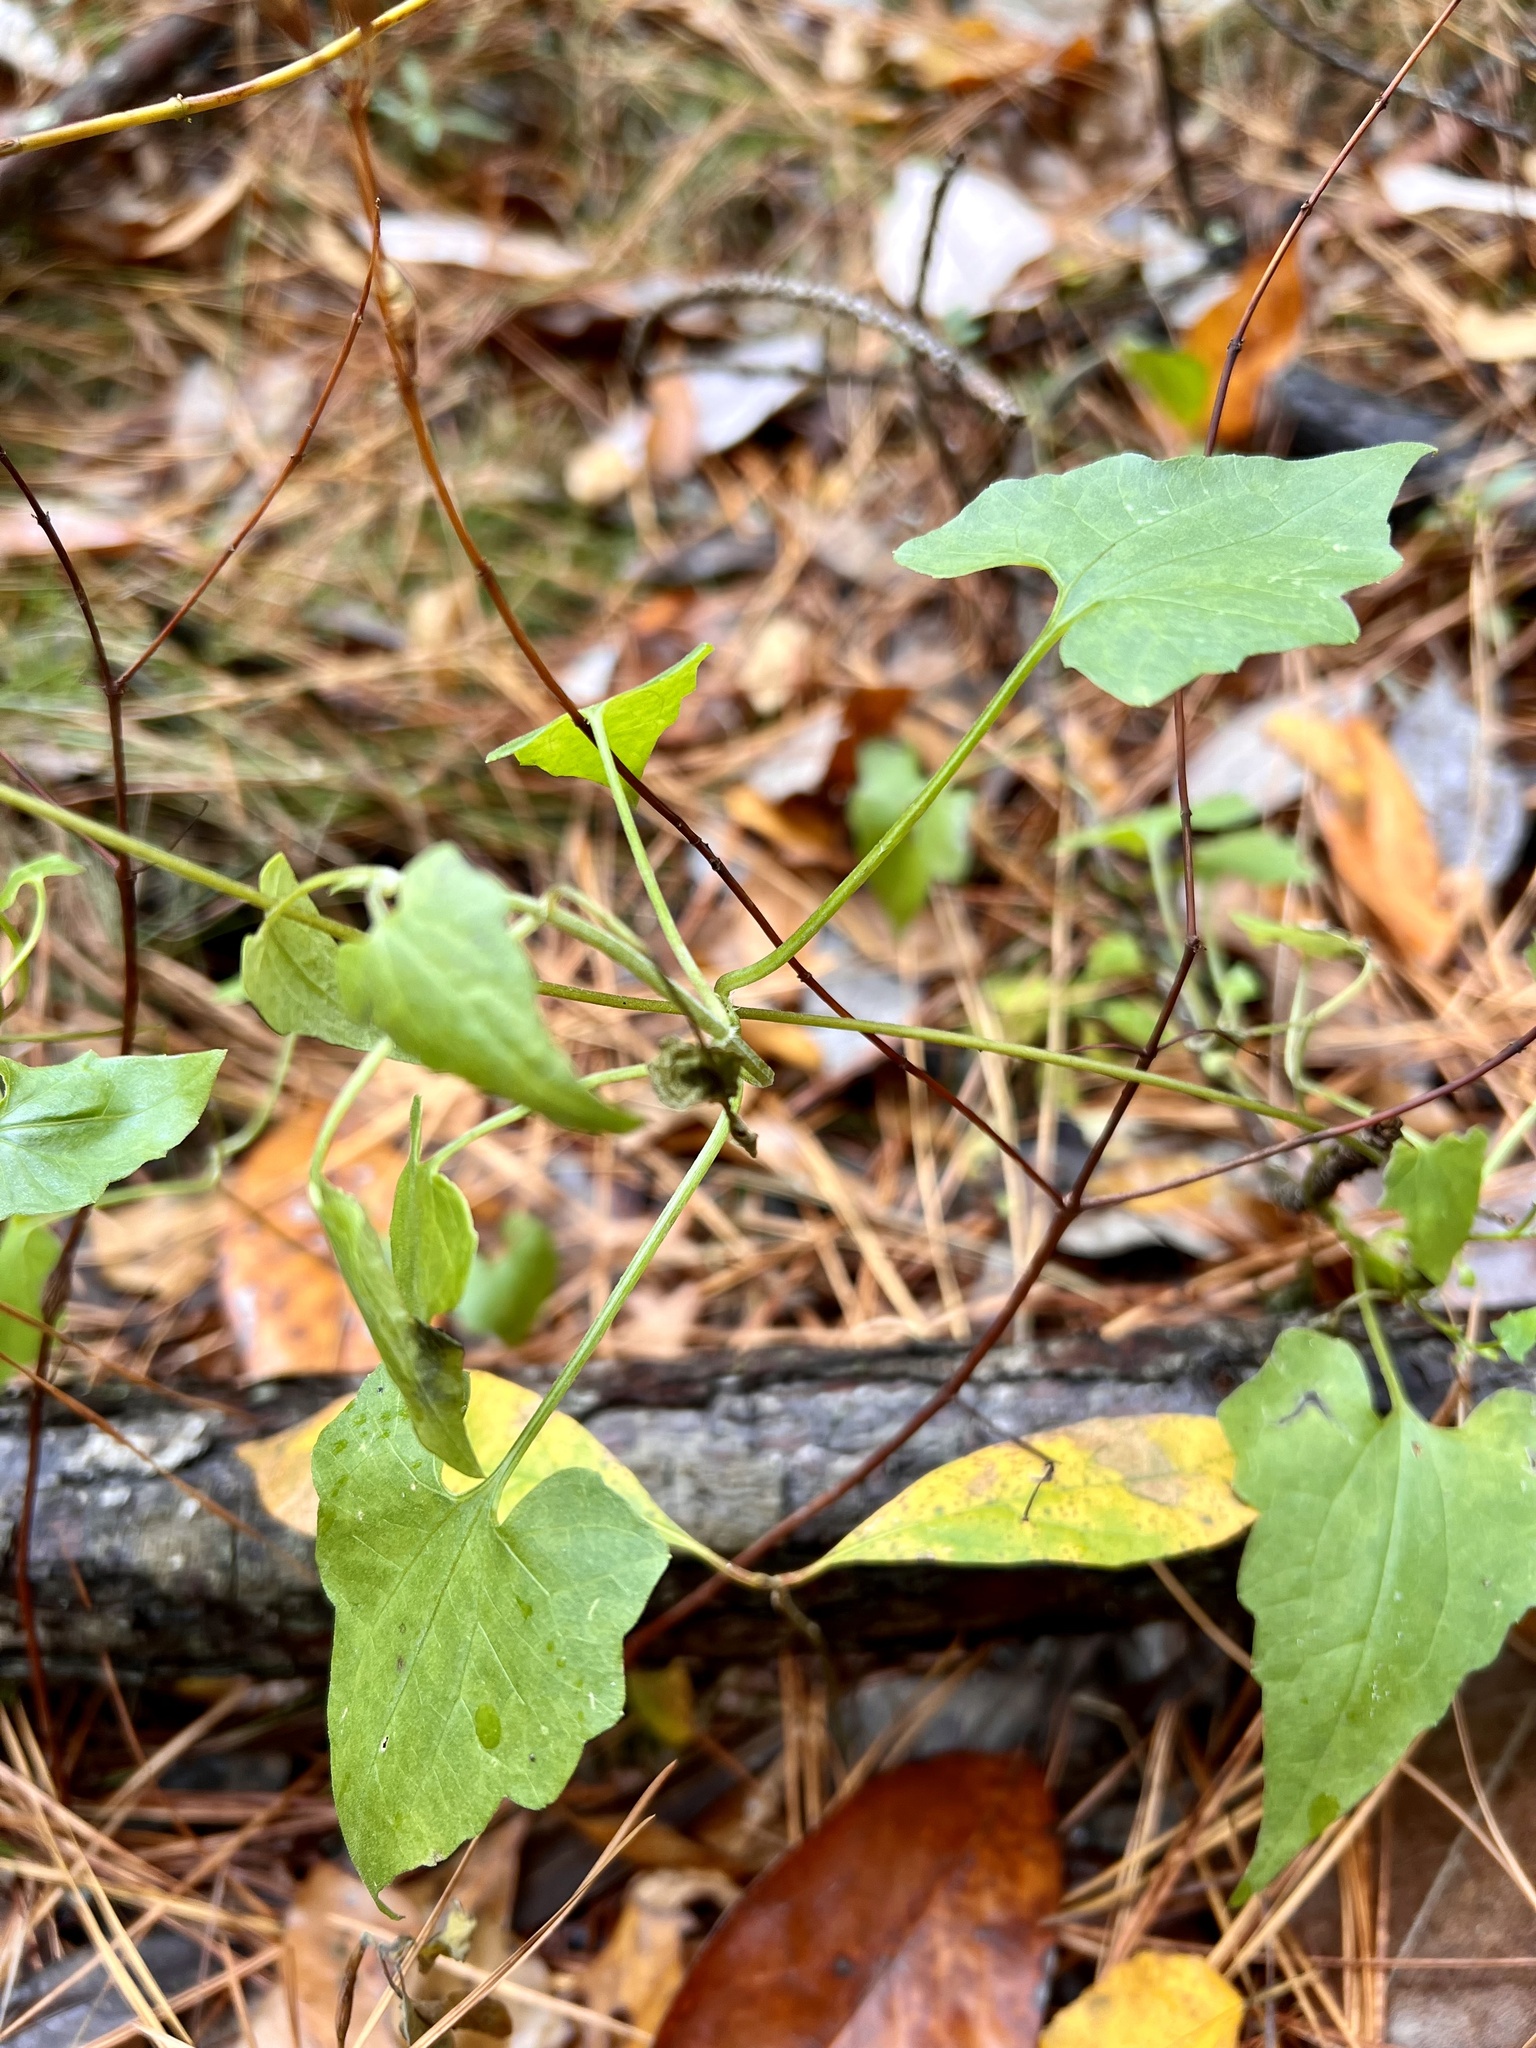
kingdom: Plantae
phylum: Tracheophyta
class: Magnoliopsida
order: Asterales
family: Asteraceae
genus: Mikania
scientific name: Mikania cordifolia
